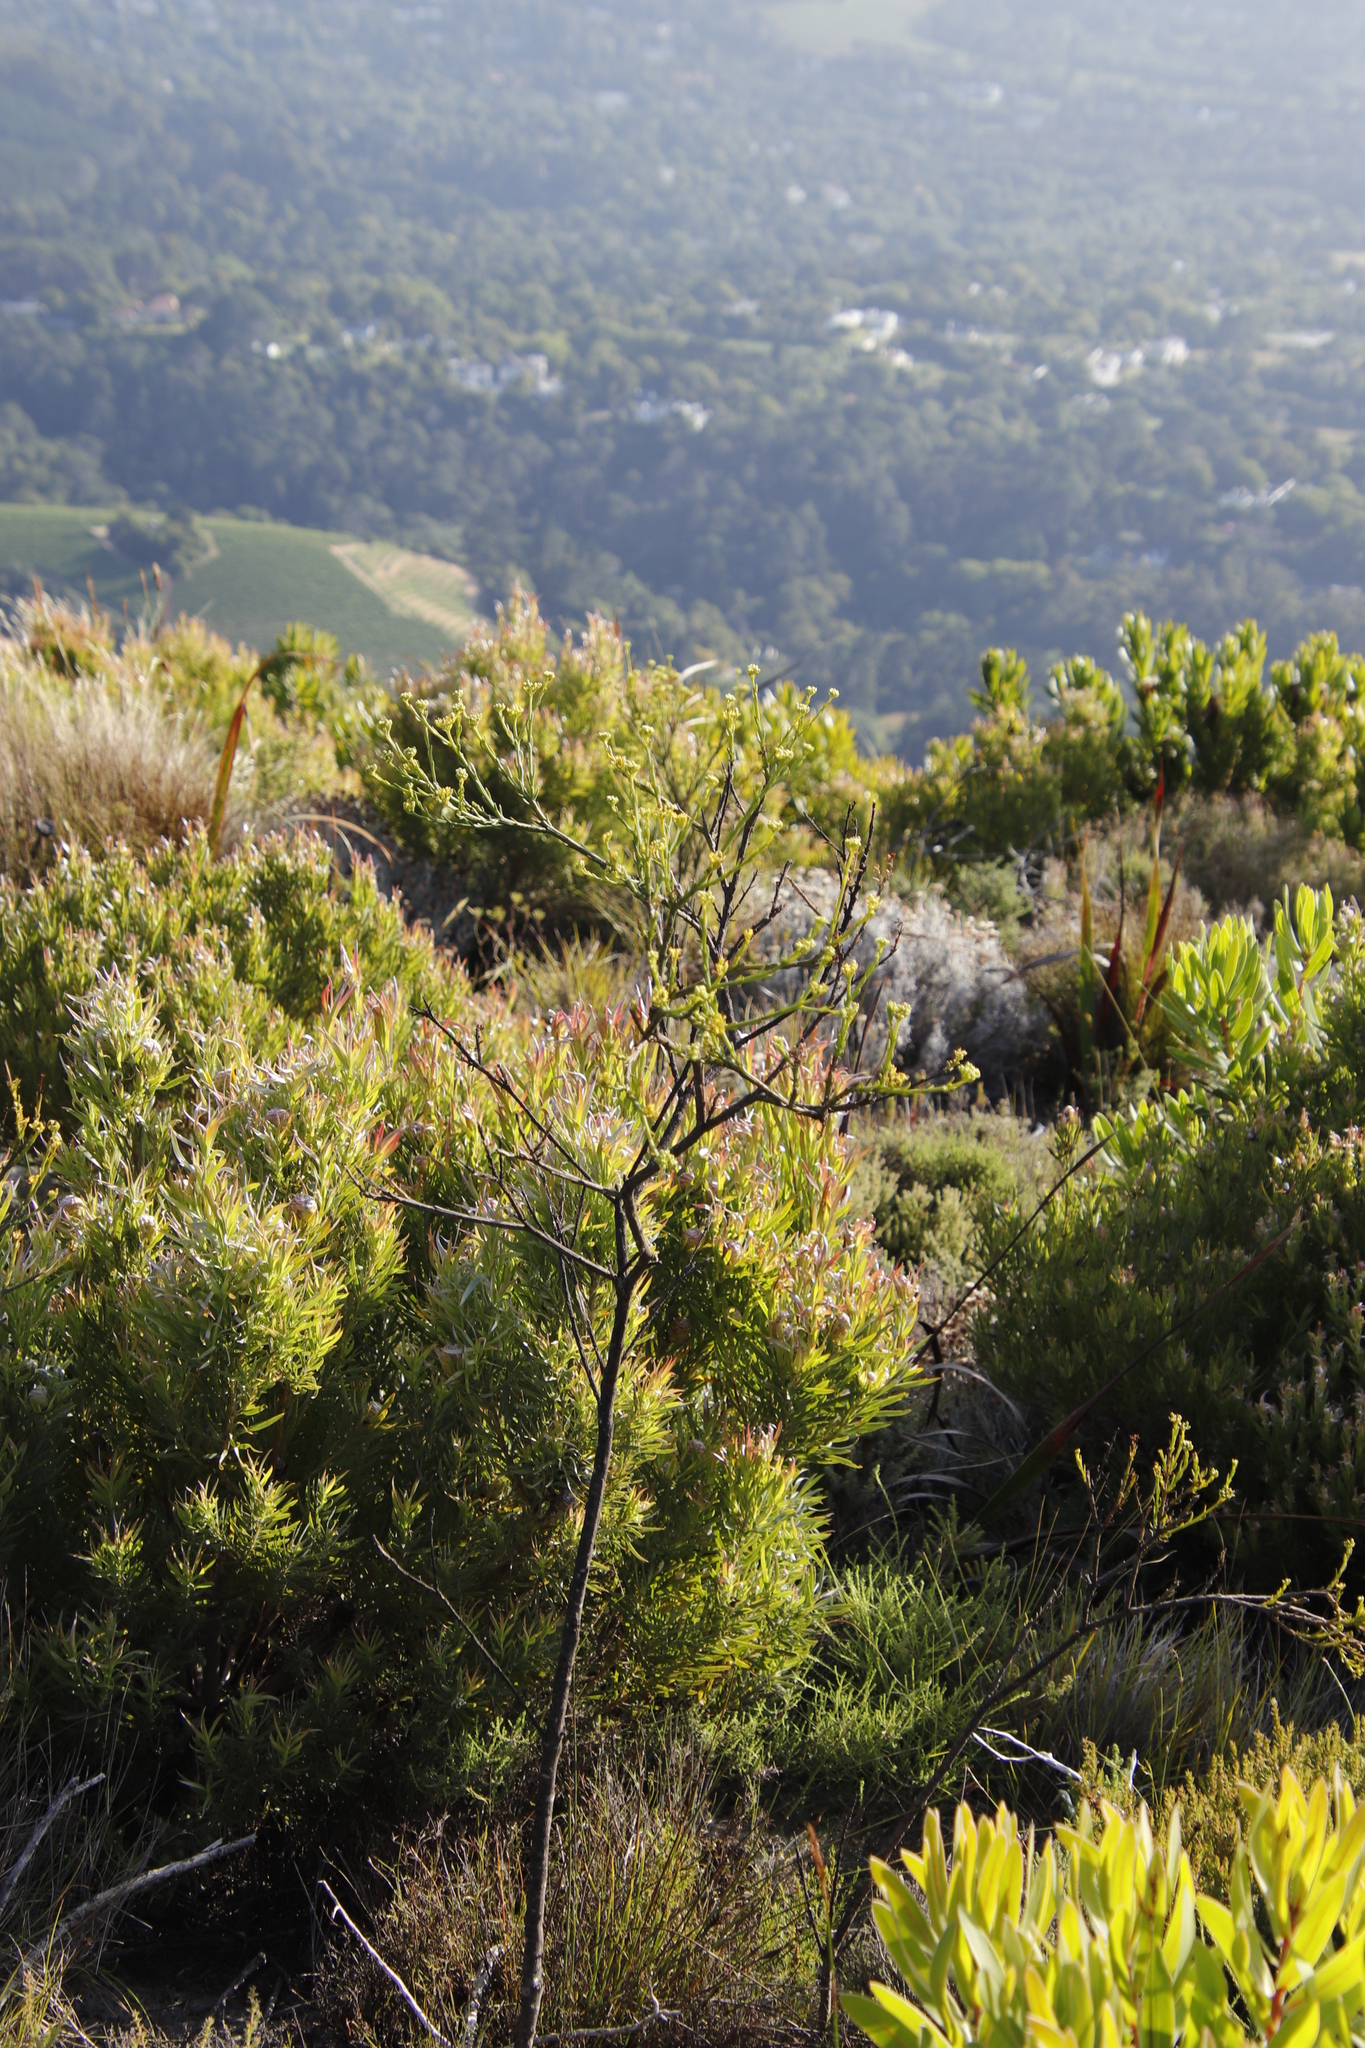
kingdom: Plantae
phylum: Tracheophyta
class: Magnoliopsida
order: Santalales
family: Thesiaceae
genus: Thesium
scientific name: Thesium strictum
